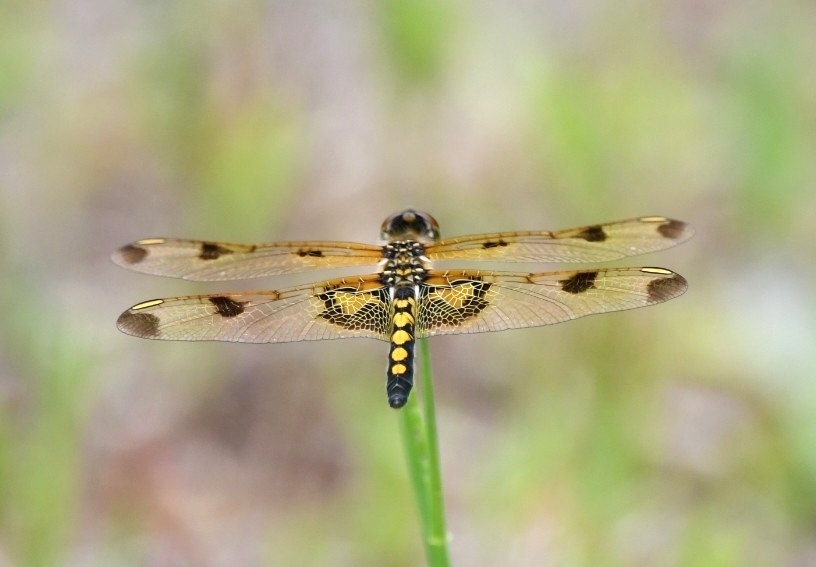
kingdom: Animalia
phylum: Arthropoda
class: Insecta
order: Odonata
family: Libellulidae
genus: Celithemis
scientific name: Celithemis elisa
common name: Calico pennant
